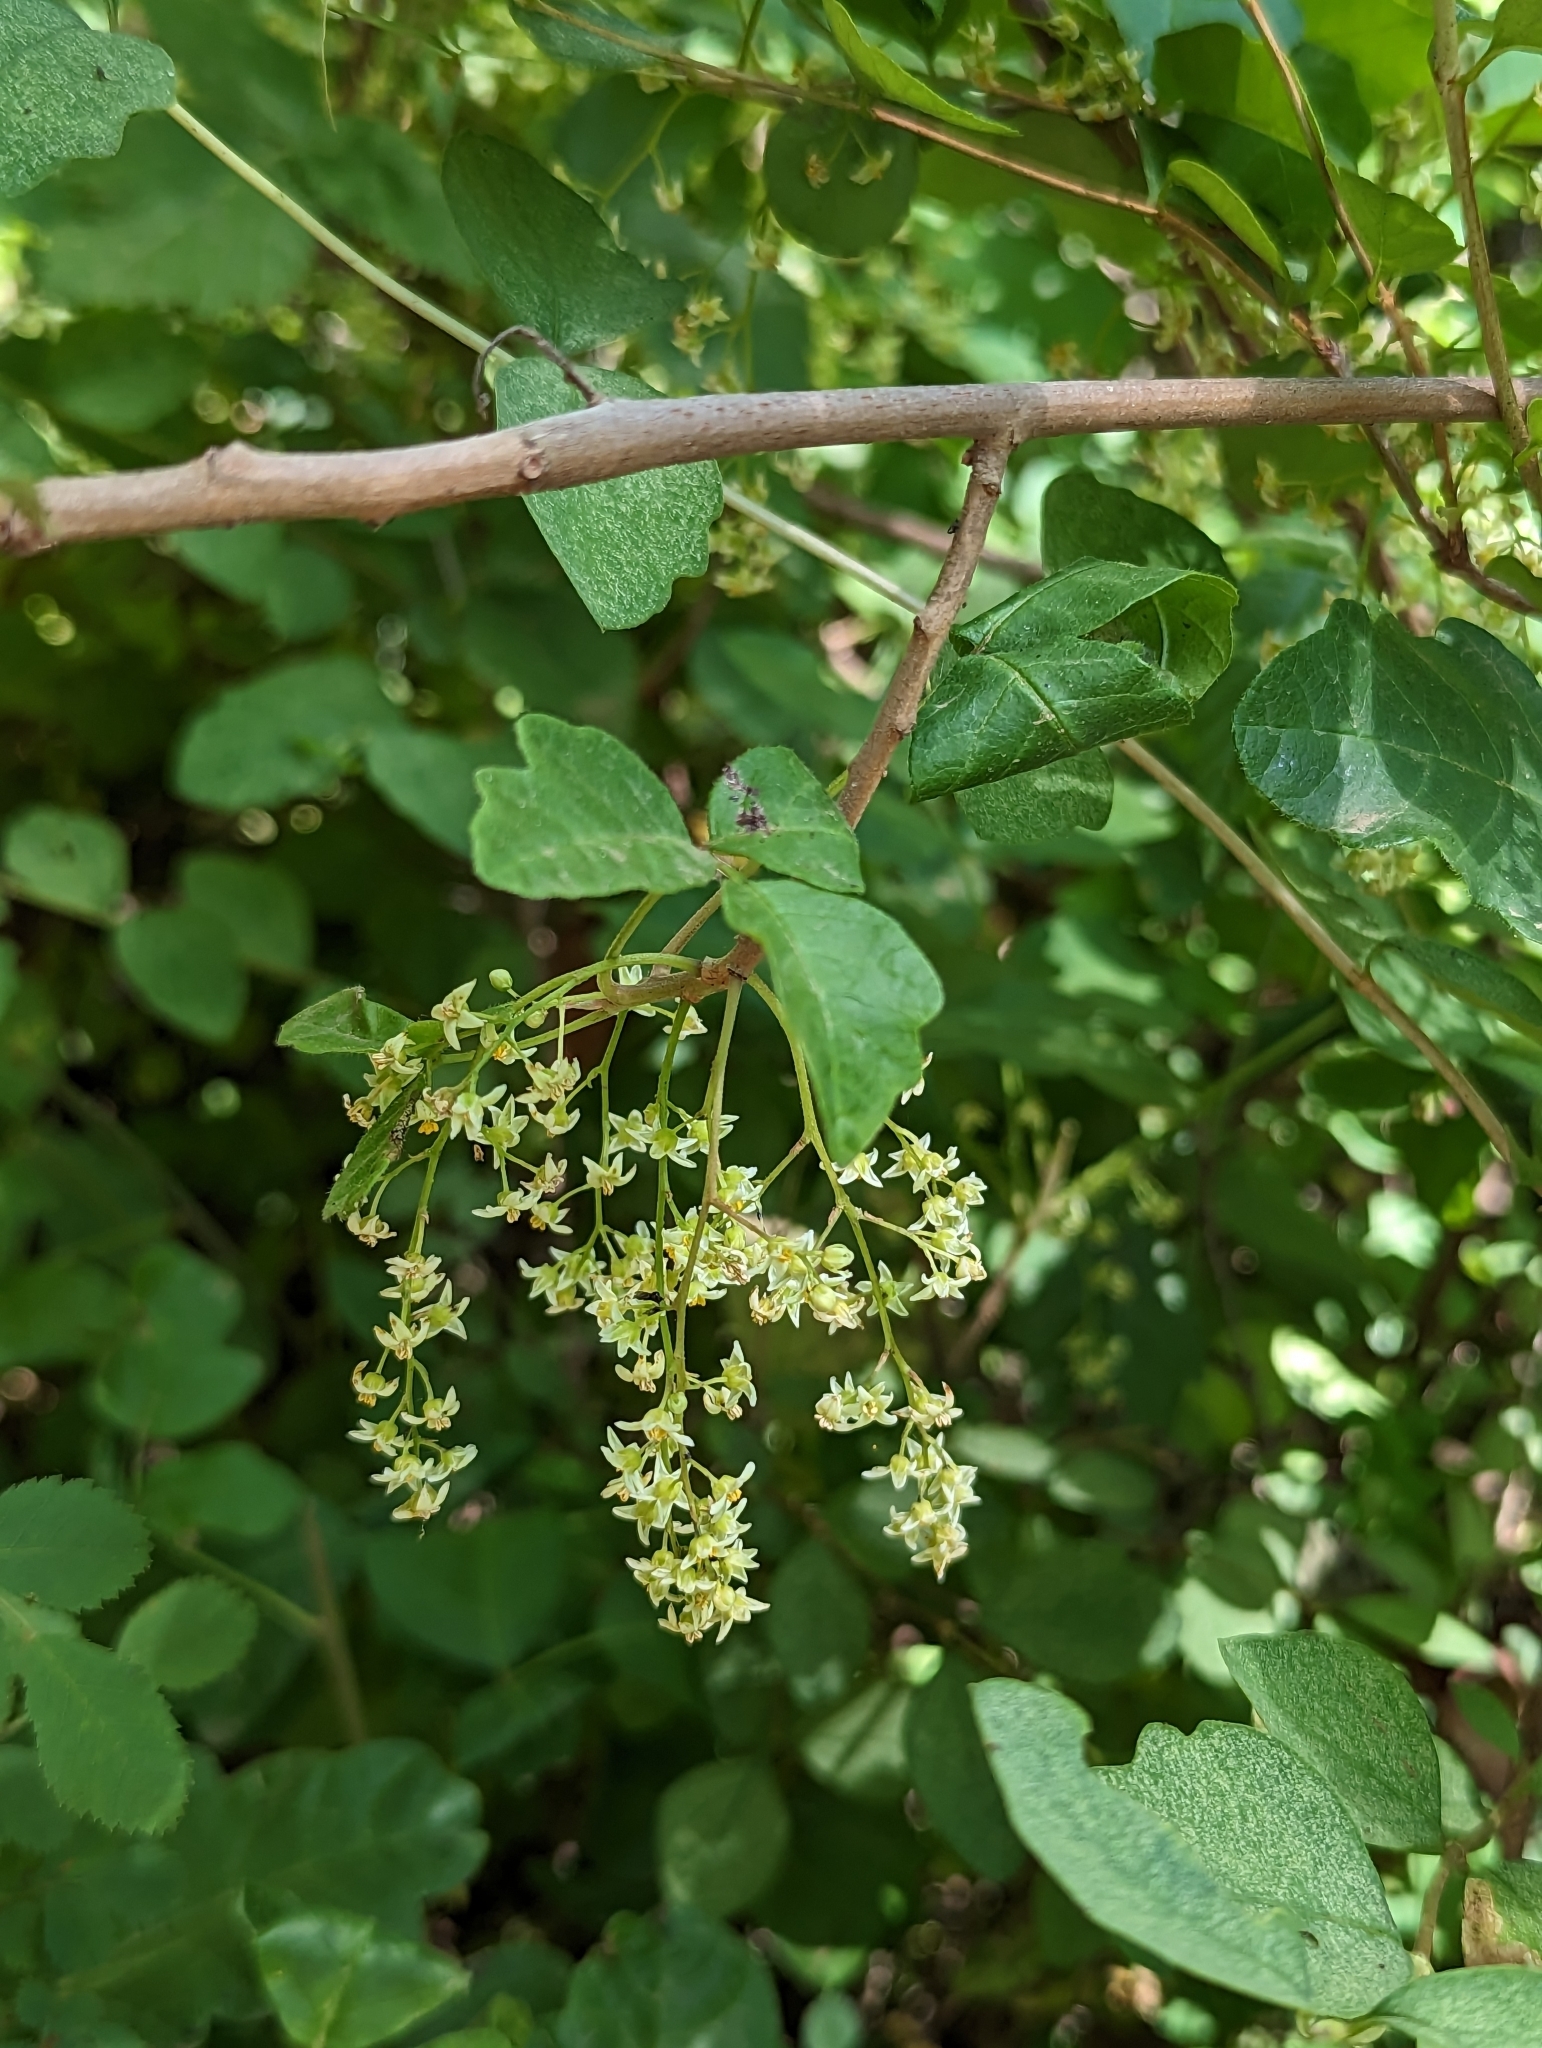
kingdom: Plantae
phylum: Tracheophyta
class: Magnoliopsida
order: Sapindales
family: Anacardiaceae
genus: Toxicodendron
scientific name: Toxicodendron diversilobum
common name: Pacific poison-oak
